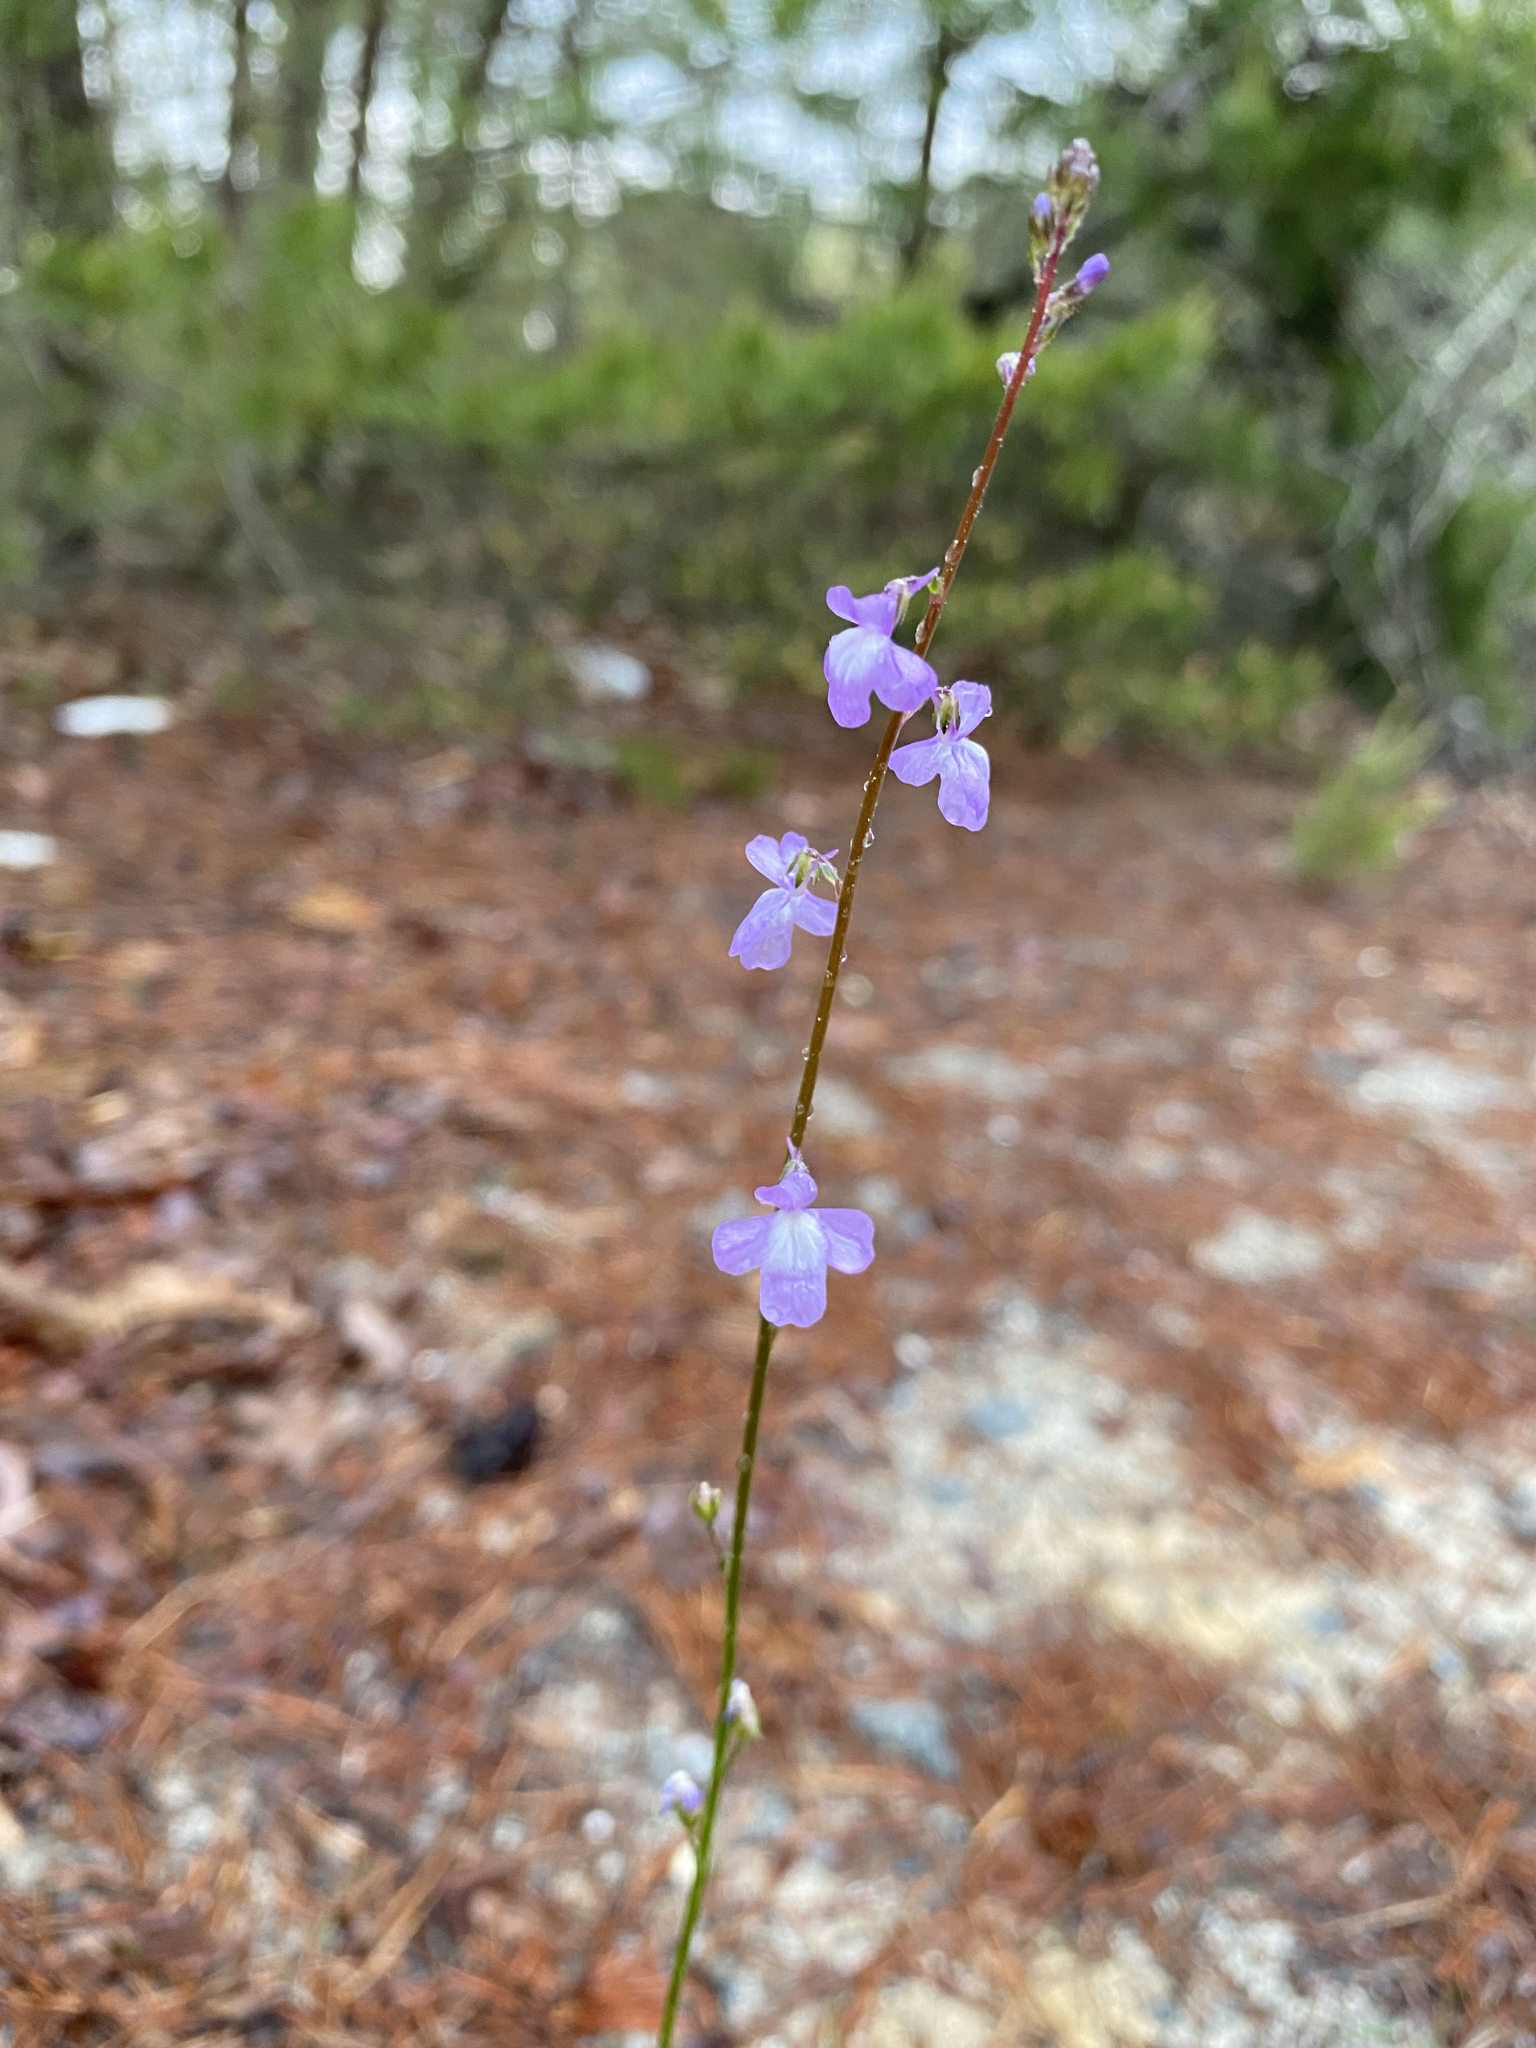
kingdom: Plantae
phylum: Tracheophyta
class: Magnoliopsida
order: Lamiales
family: Plantaginaceae
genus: Nuttallanthus
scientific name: Nuttallanthus canadensis
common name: Blue toadflax
